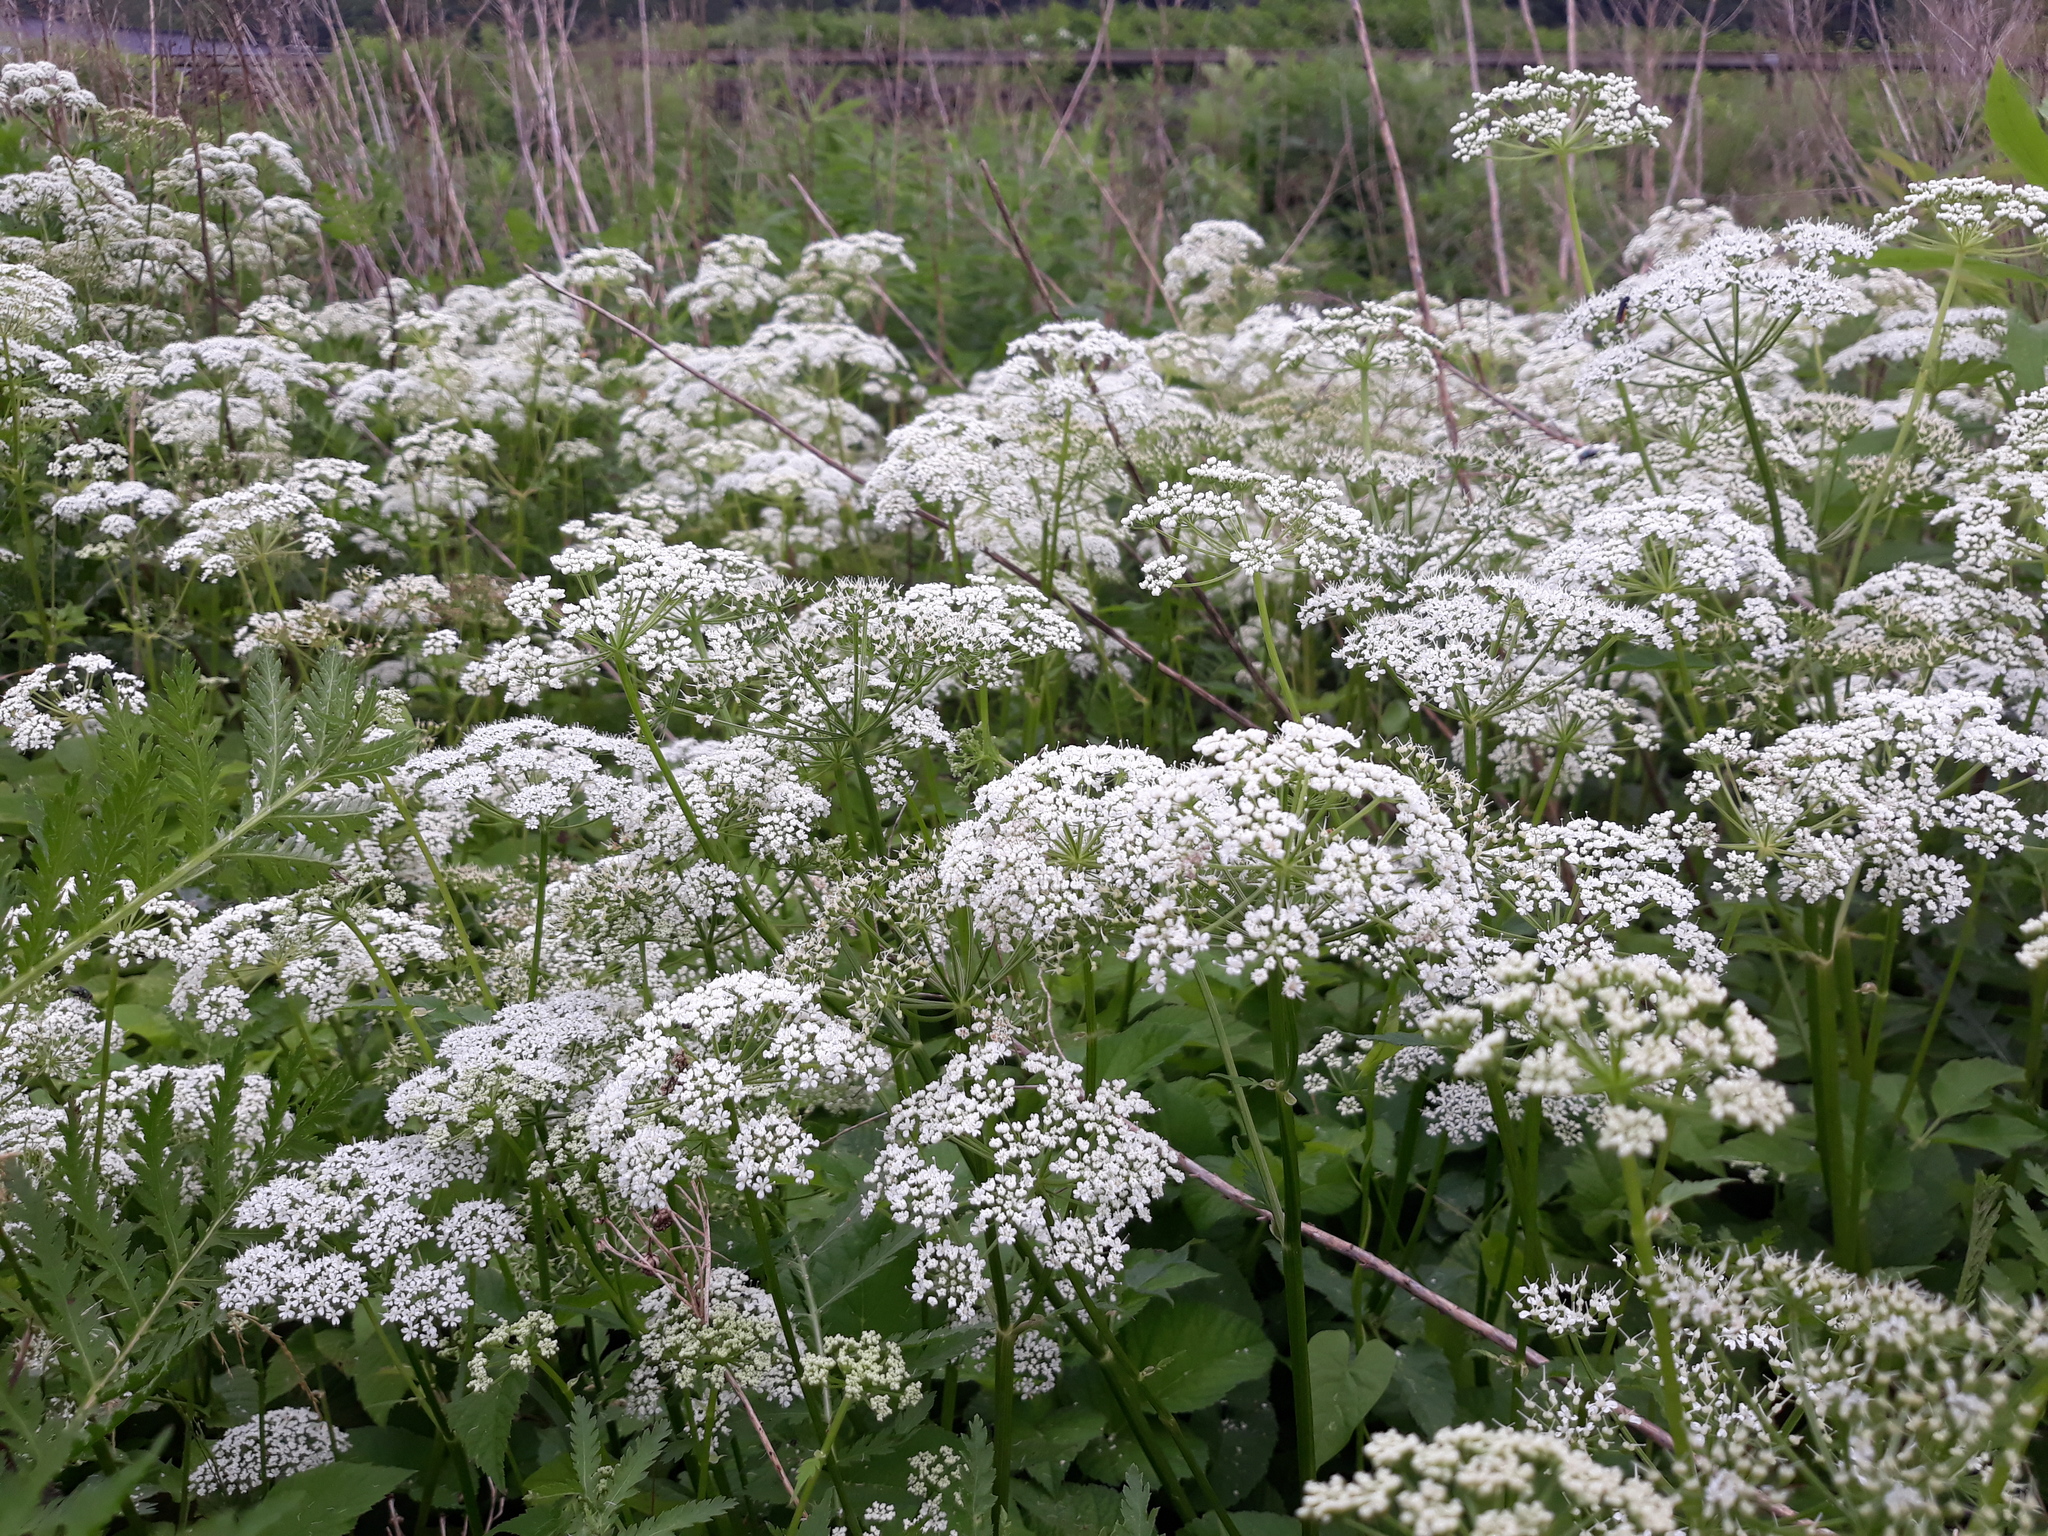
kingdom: Plantae
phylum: Tracheophyta
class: Magnoliopsida
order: Apiales
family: Apiaceae
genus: Aegopodium
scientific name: Aegopodium podagraria
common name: Ground-elder
